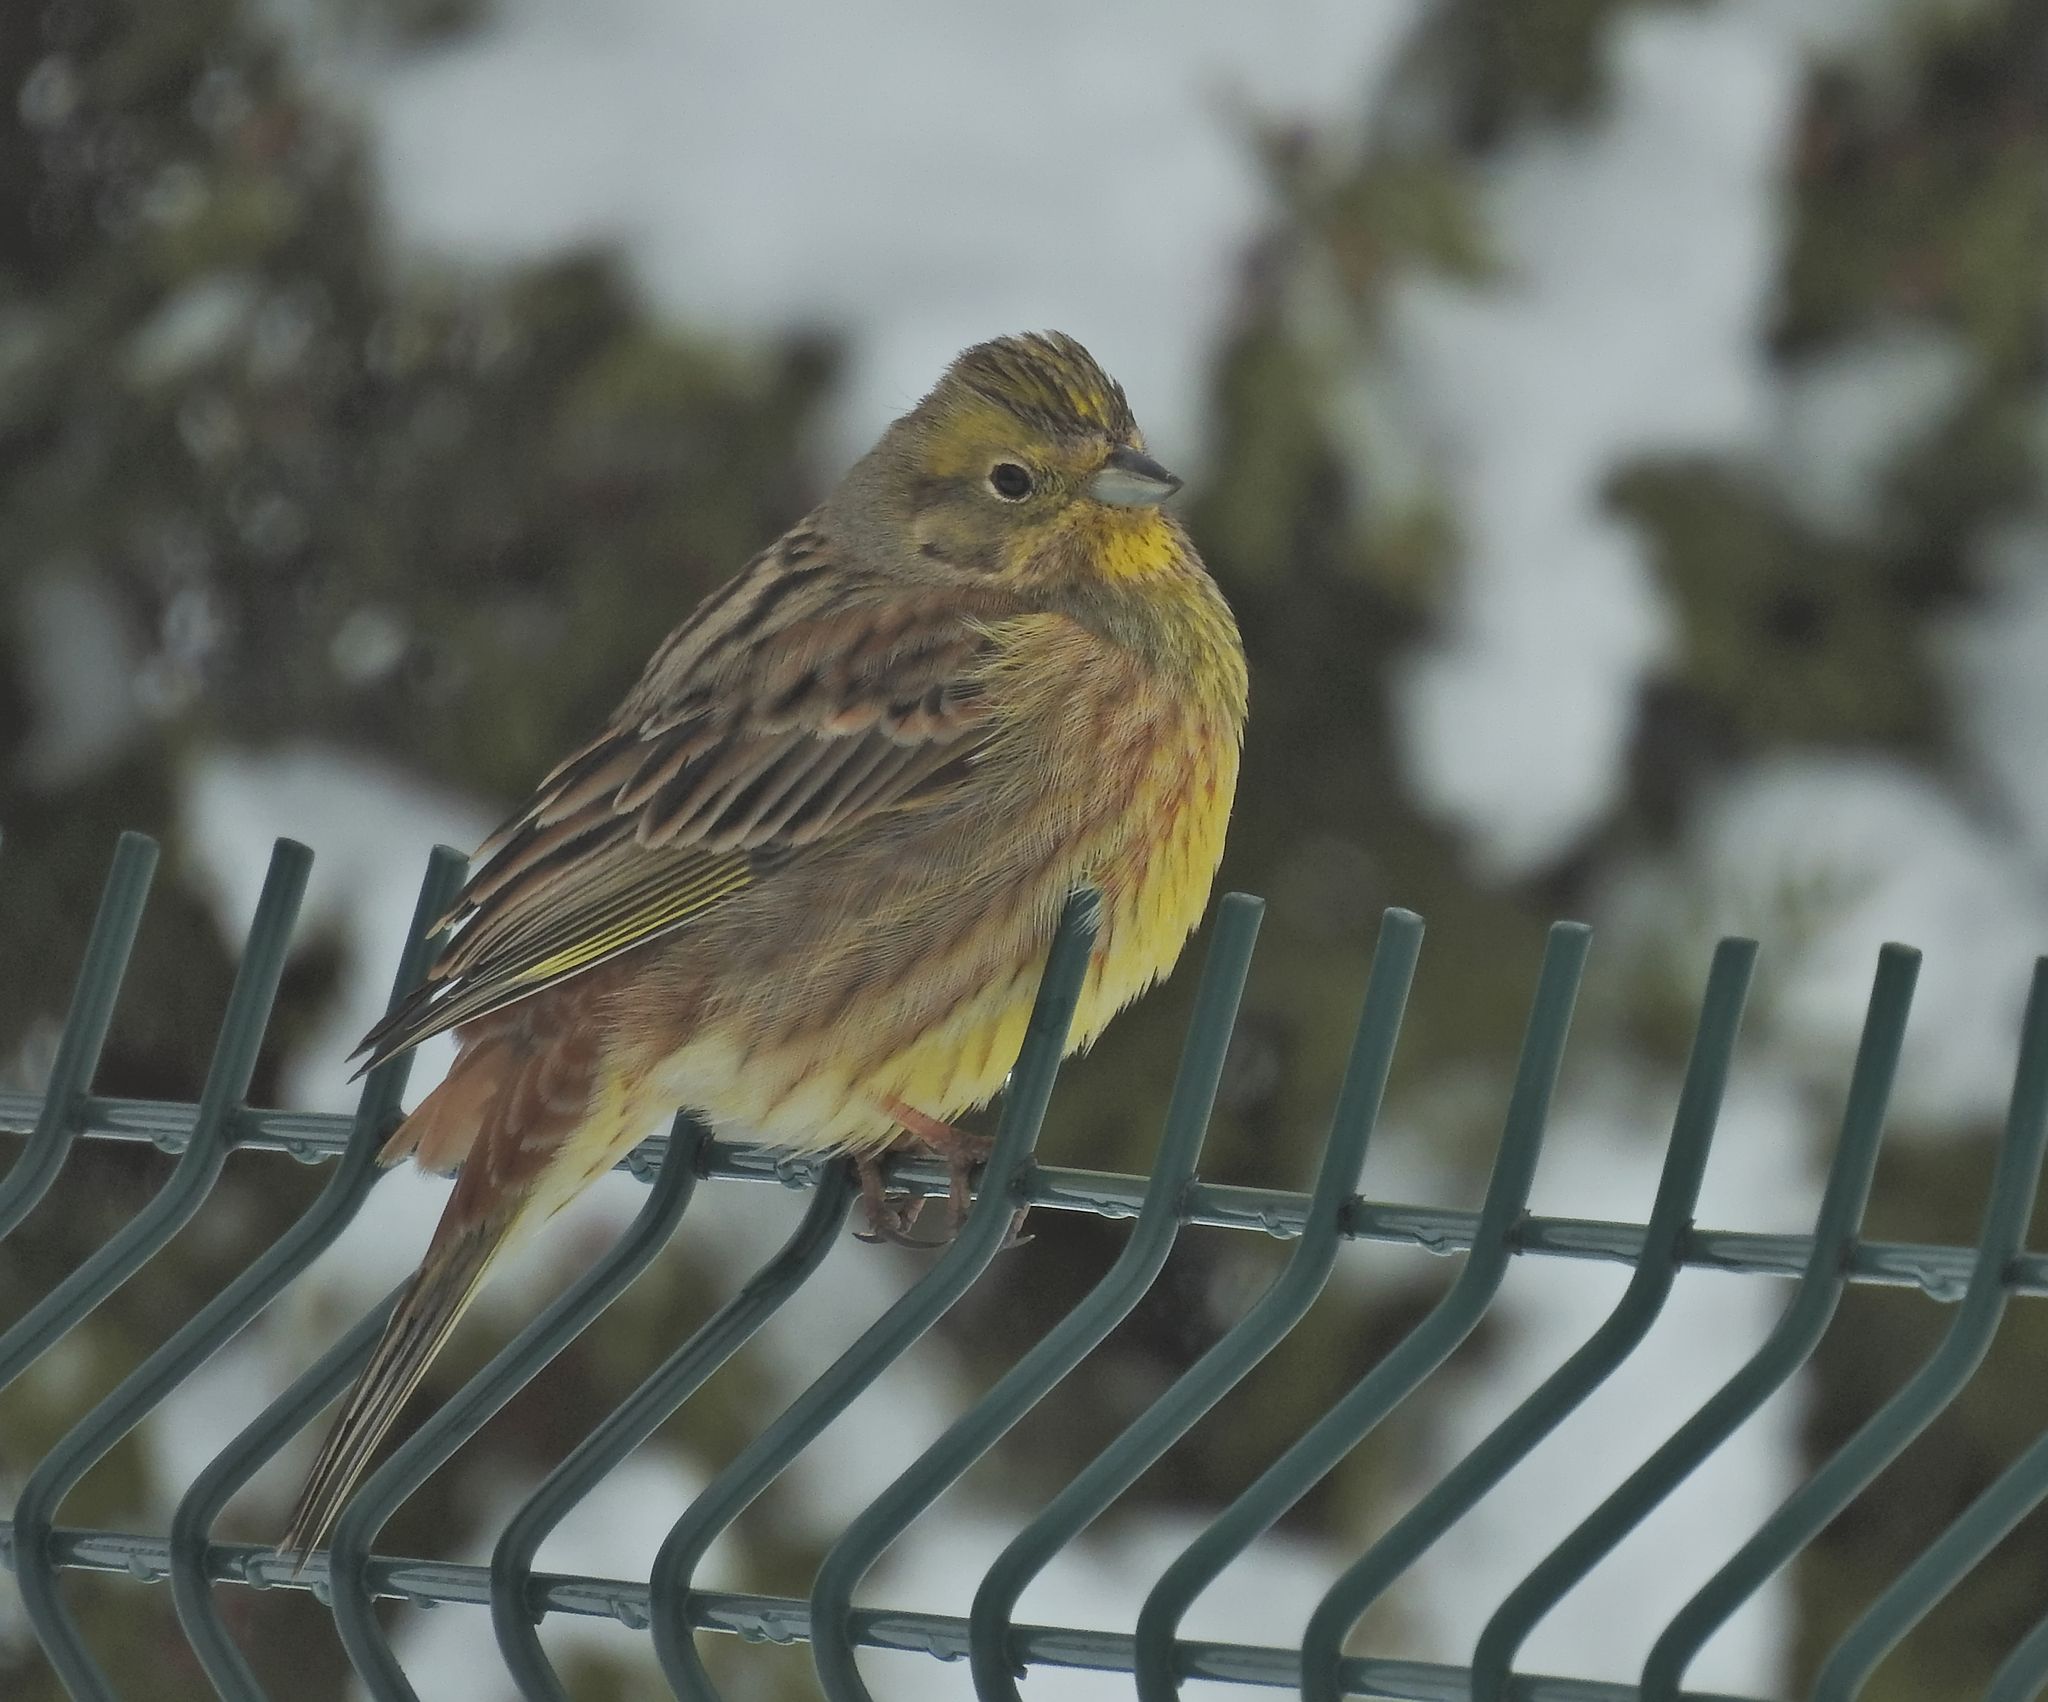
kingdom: Animalia
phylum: Chordata
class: Aves
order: Passeriformes
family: Emberizidae
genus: Emberiza
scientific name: Emberiza citrinella
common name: Yellowhammer
